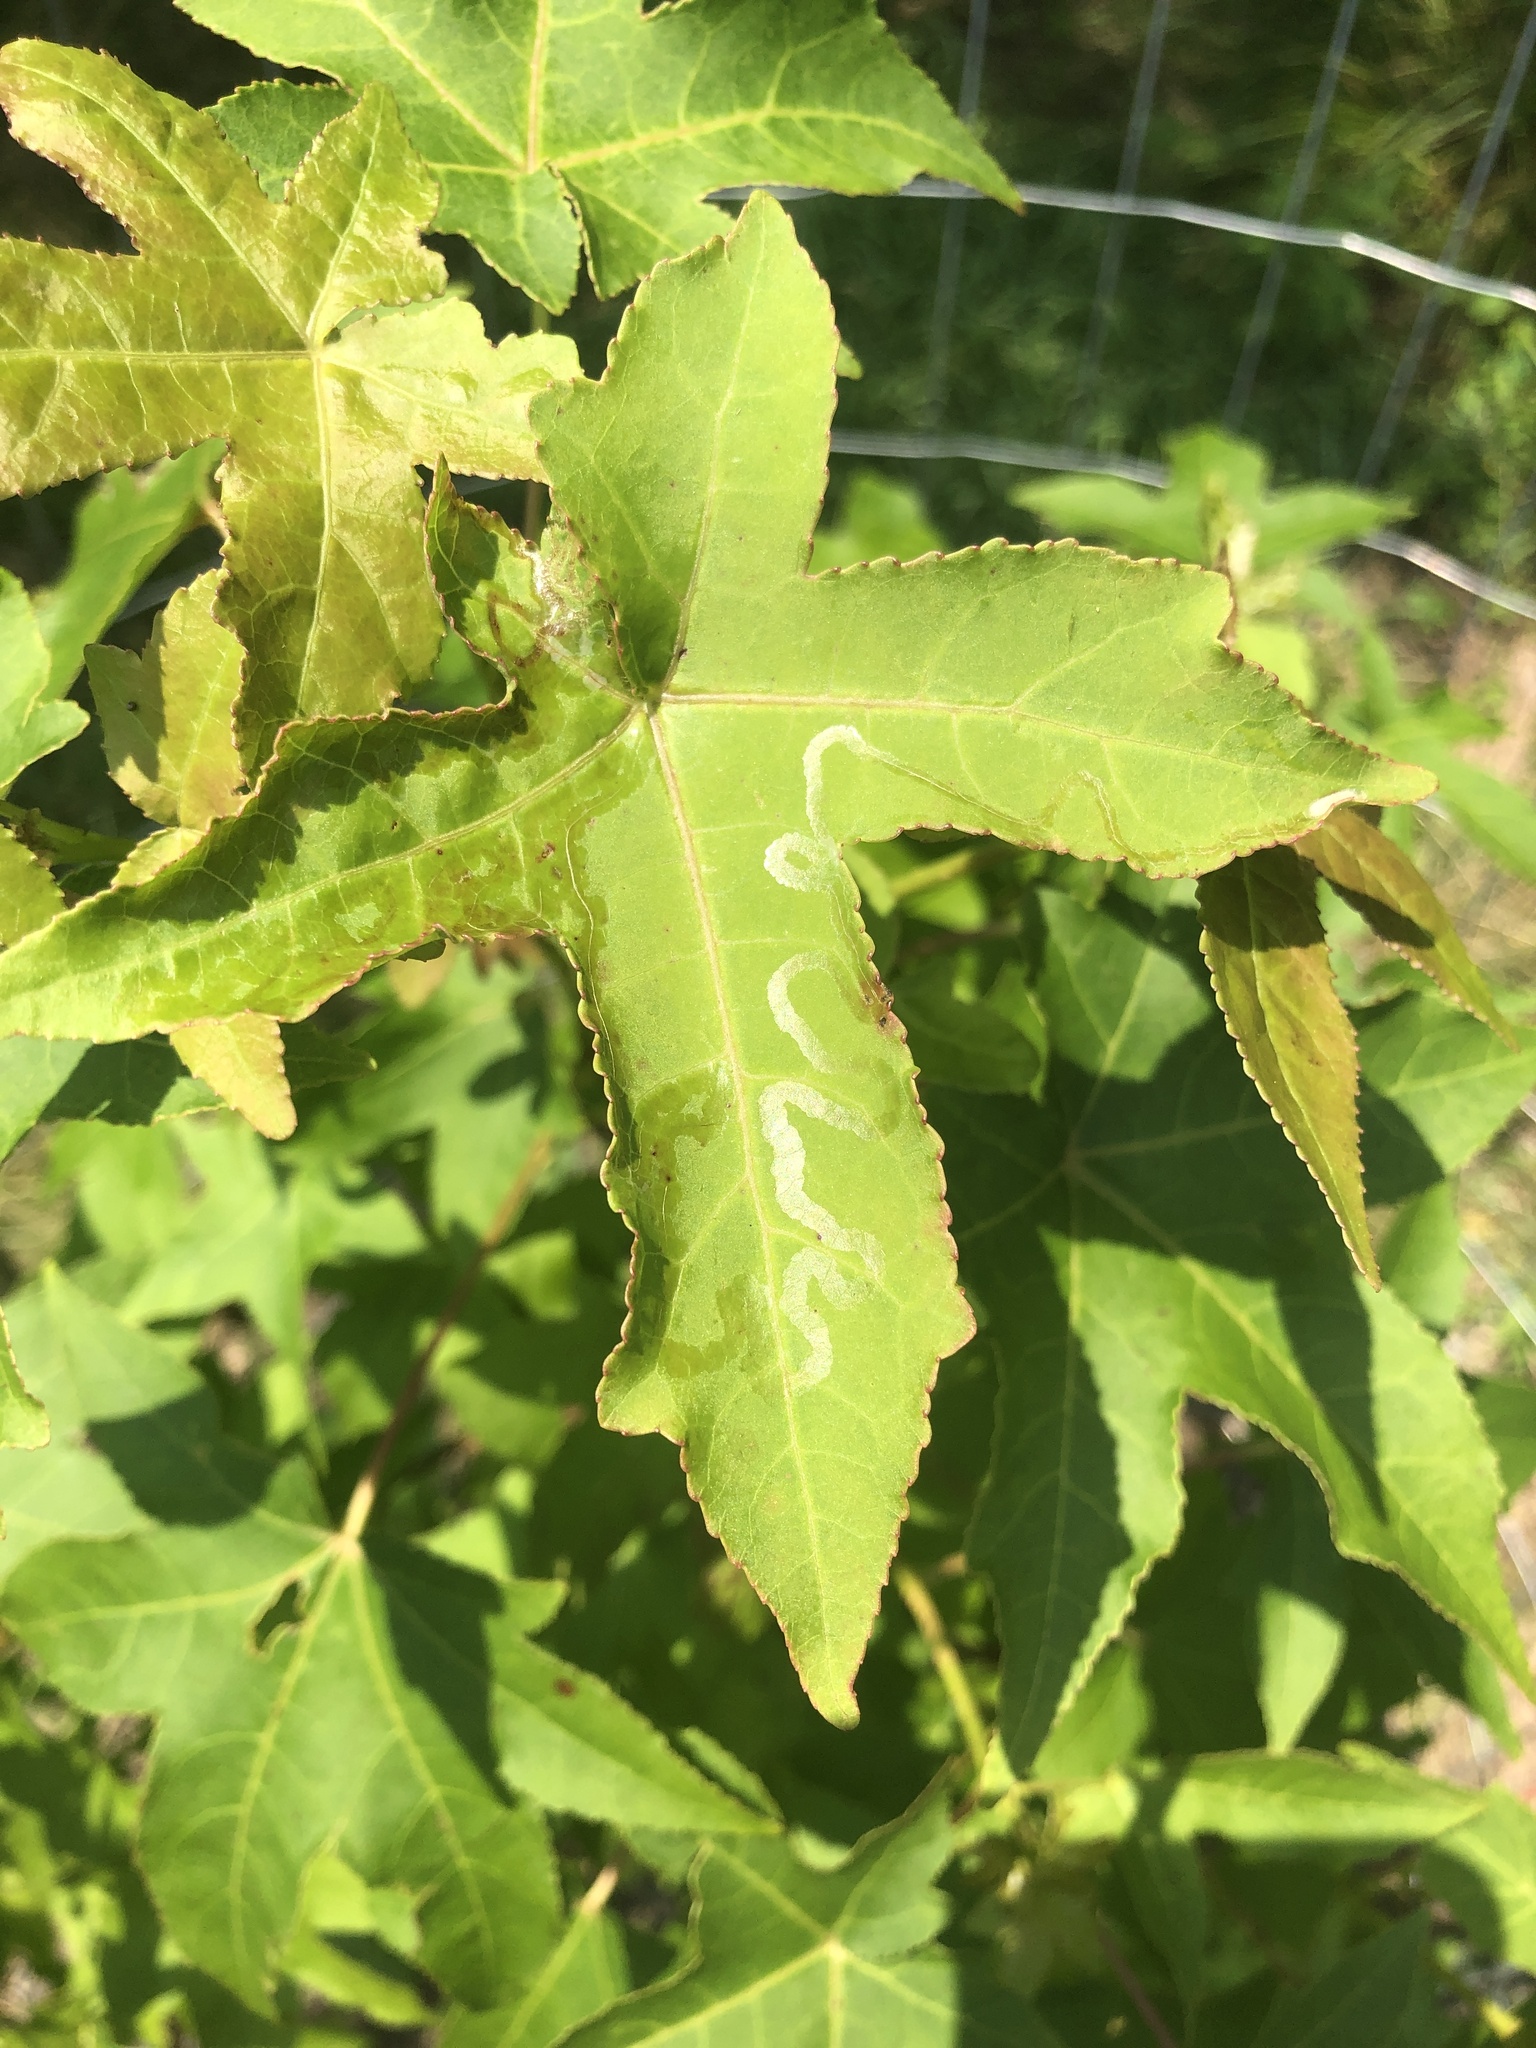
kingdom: Animalia
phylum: Arthropoda
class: Insecta
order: Lepidoptera
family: Gracillariidae
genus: Phyllocnistis
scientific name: Phyllocnistis liquidambarisella
